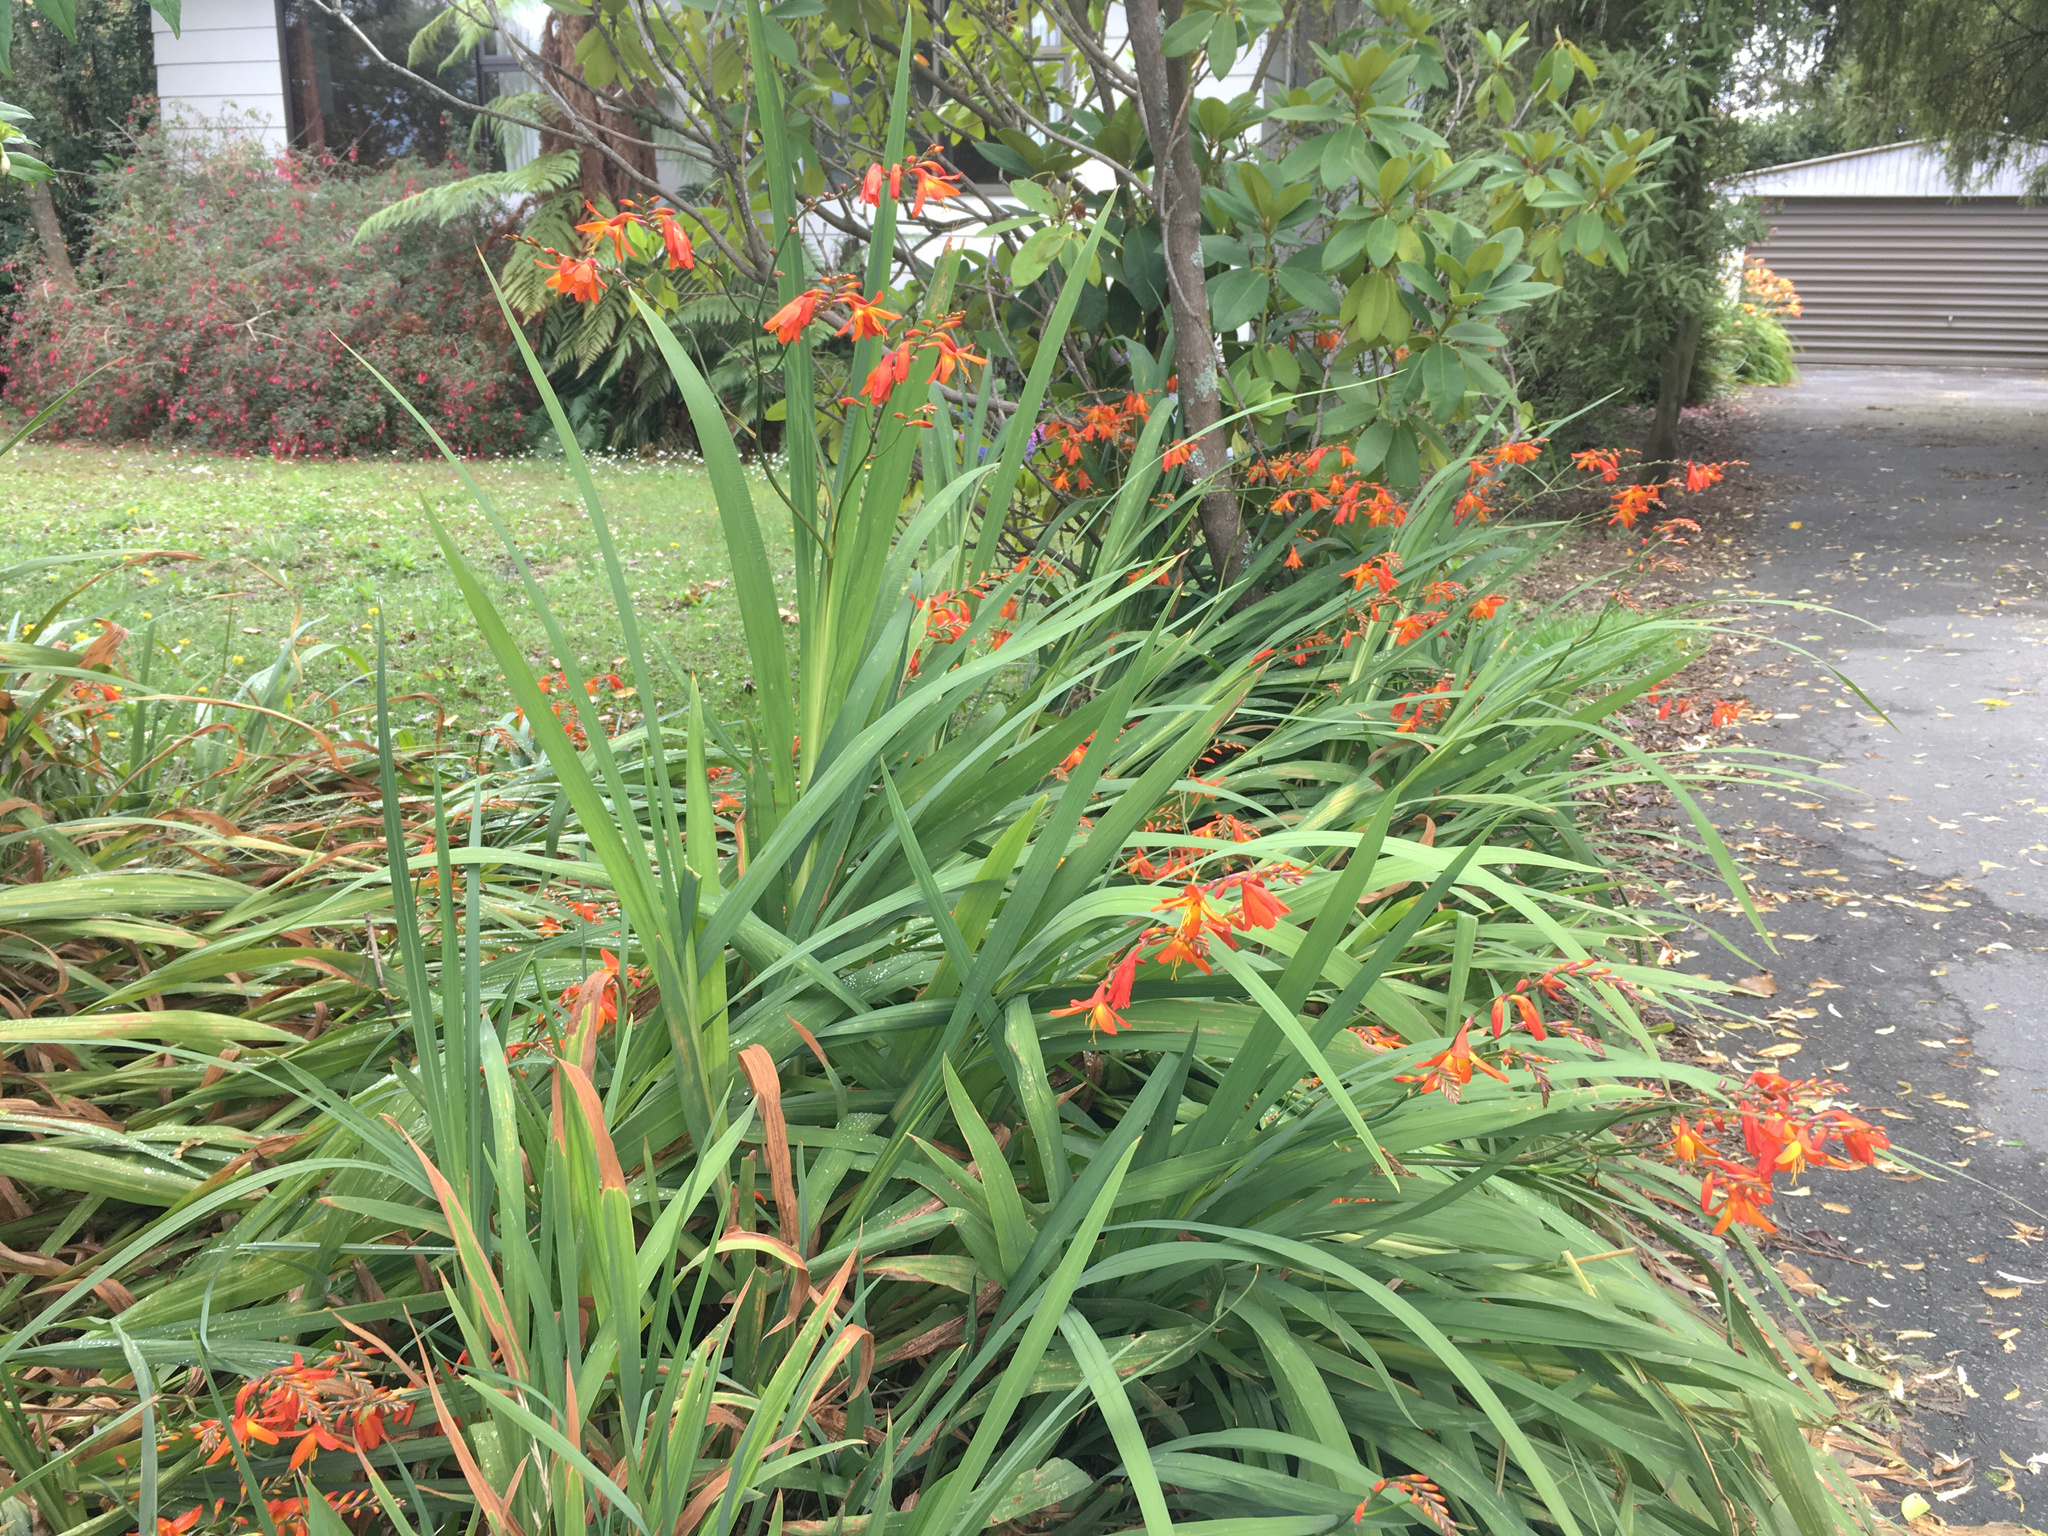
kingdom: Plantae
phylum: Tracheophyta
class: Liliopsida
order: Asparagales
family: Iridaceae
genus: Crocosmia
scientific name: Crocosmia crocosmiiflora
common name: Montbretia
